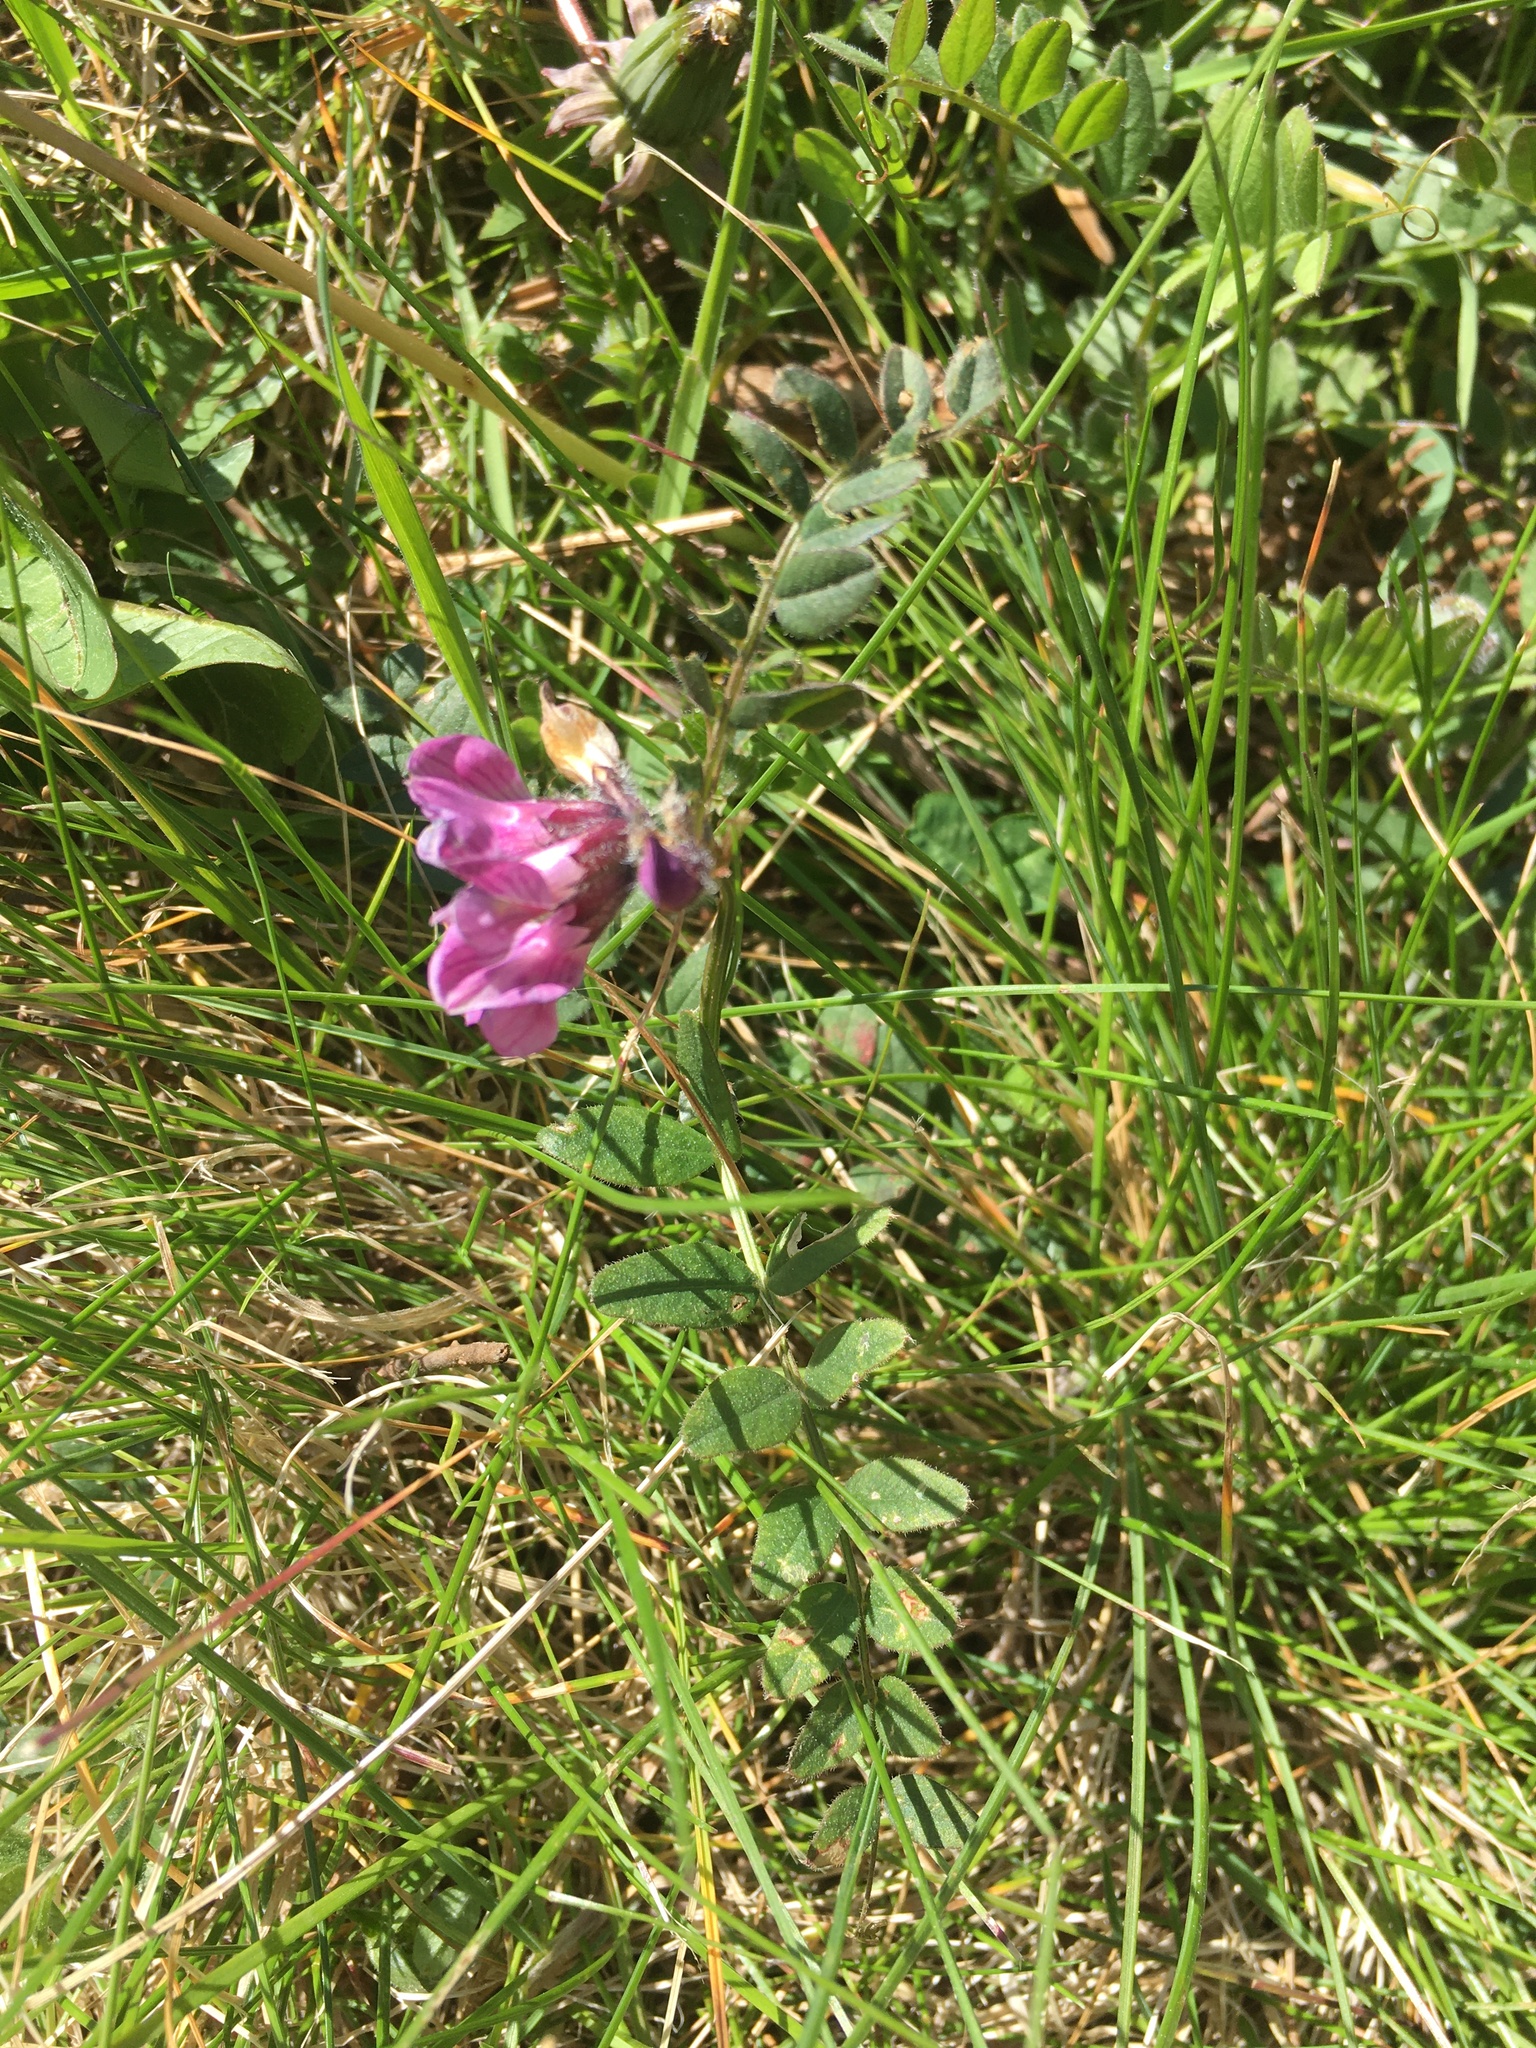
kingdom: Plantae
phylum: Tracheophyta
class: Magnoliopsida
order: Fabales
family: Fabaceae
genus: Vicia
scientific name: Vicia sepium
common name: Bush vetch
